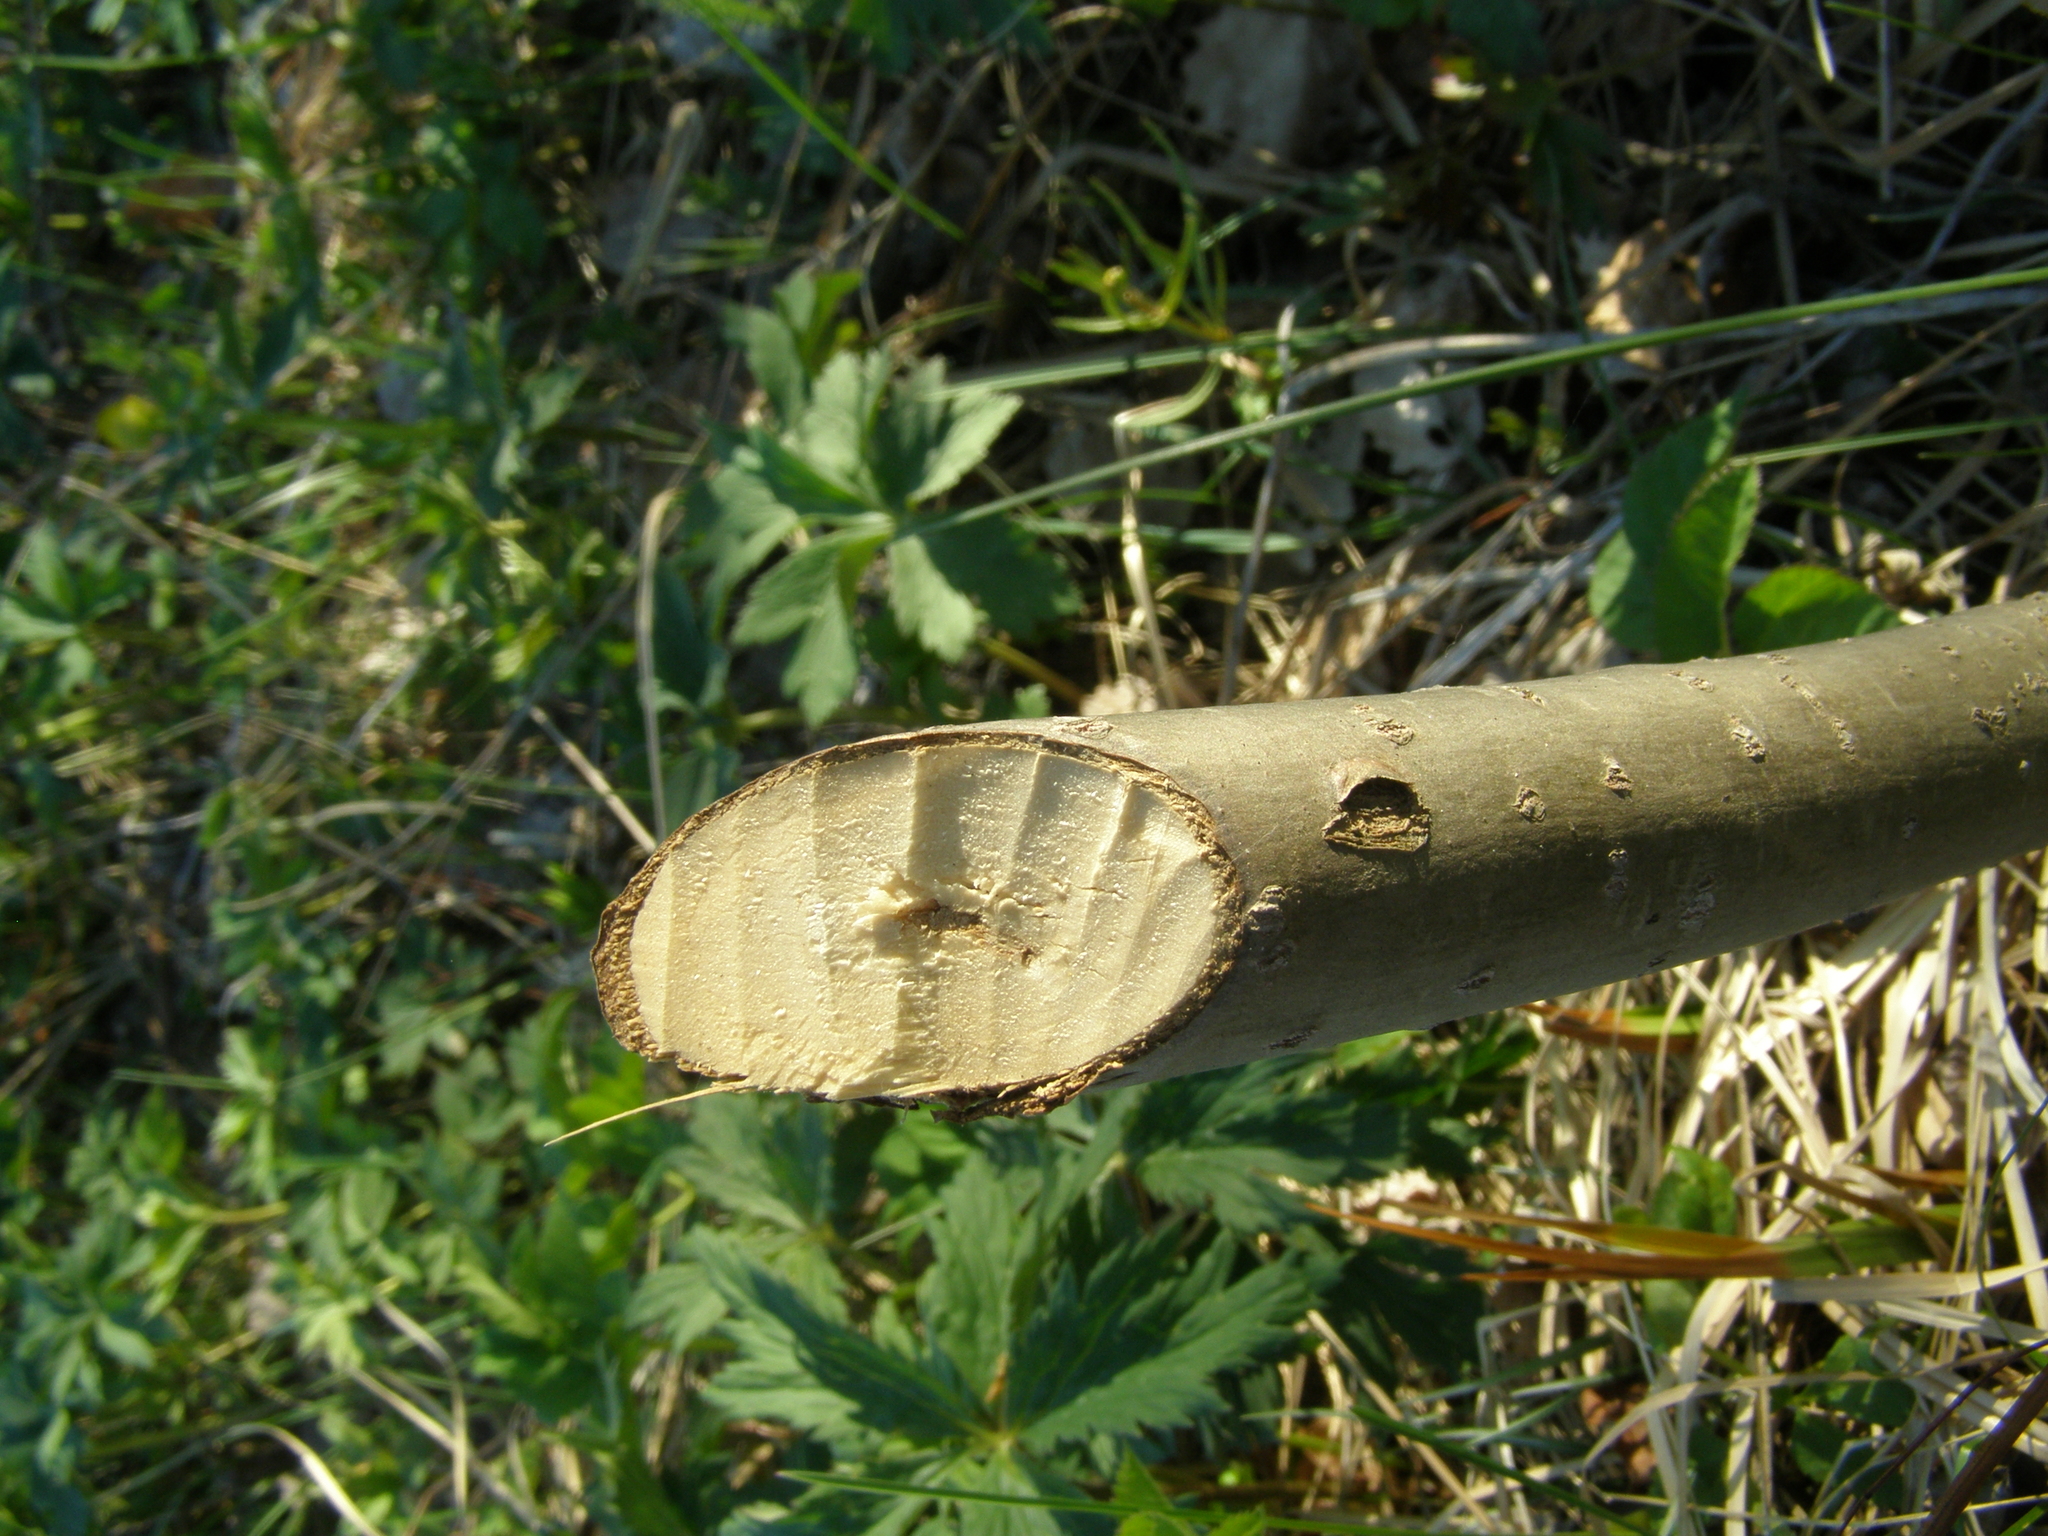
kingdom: Animalia
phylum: Chordata
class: Mammalia
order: Rodentia
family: Castoridae
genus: Castor
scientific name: Castor fiber
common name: Eurasian beaver
